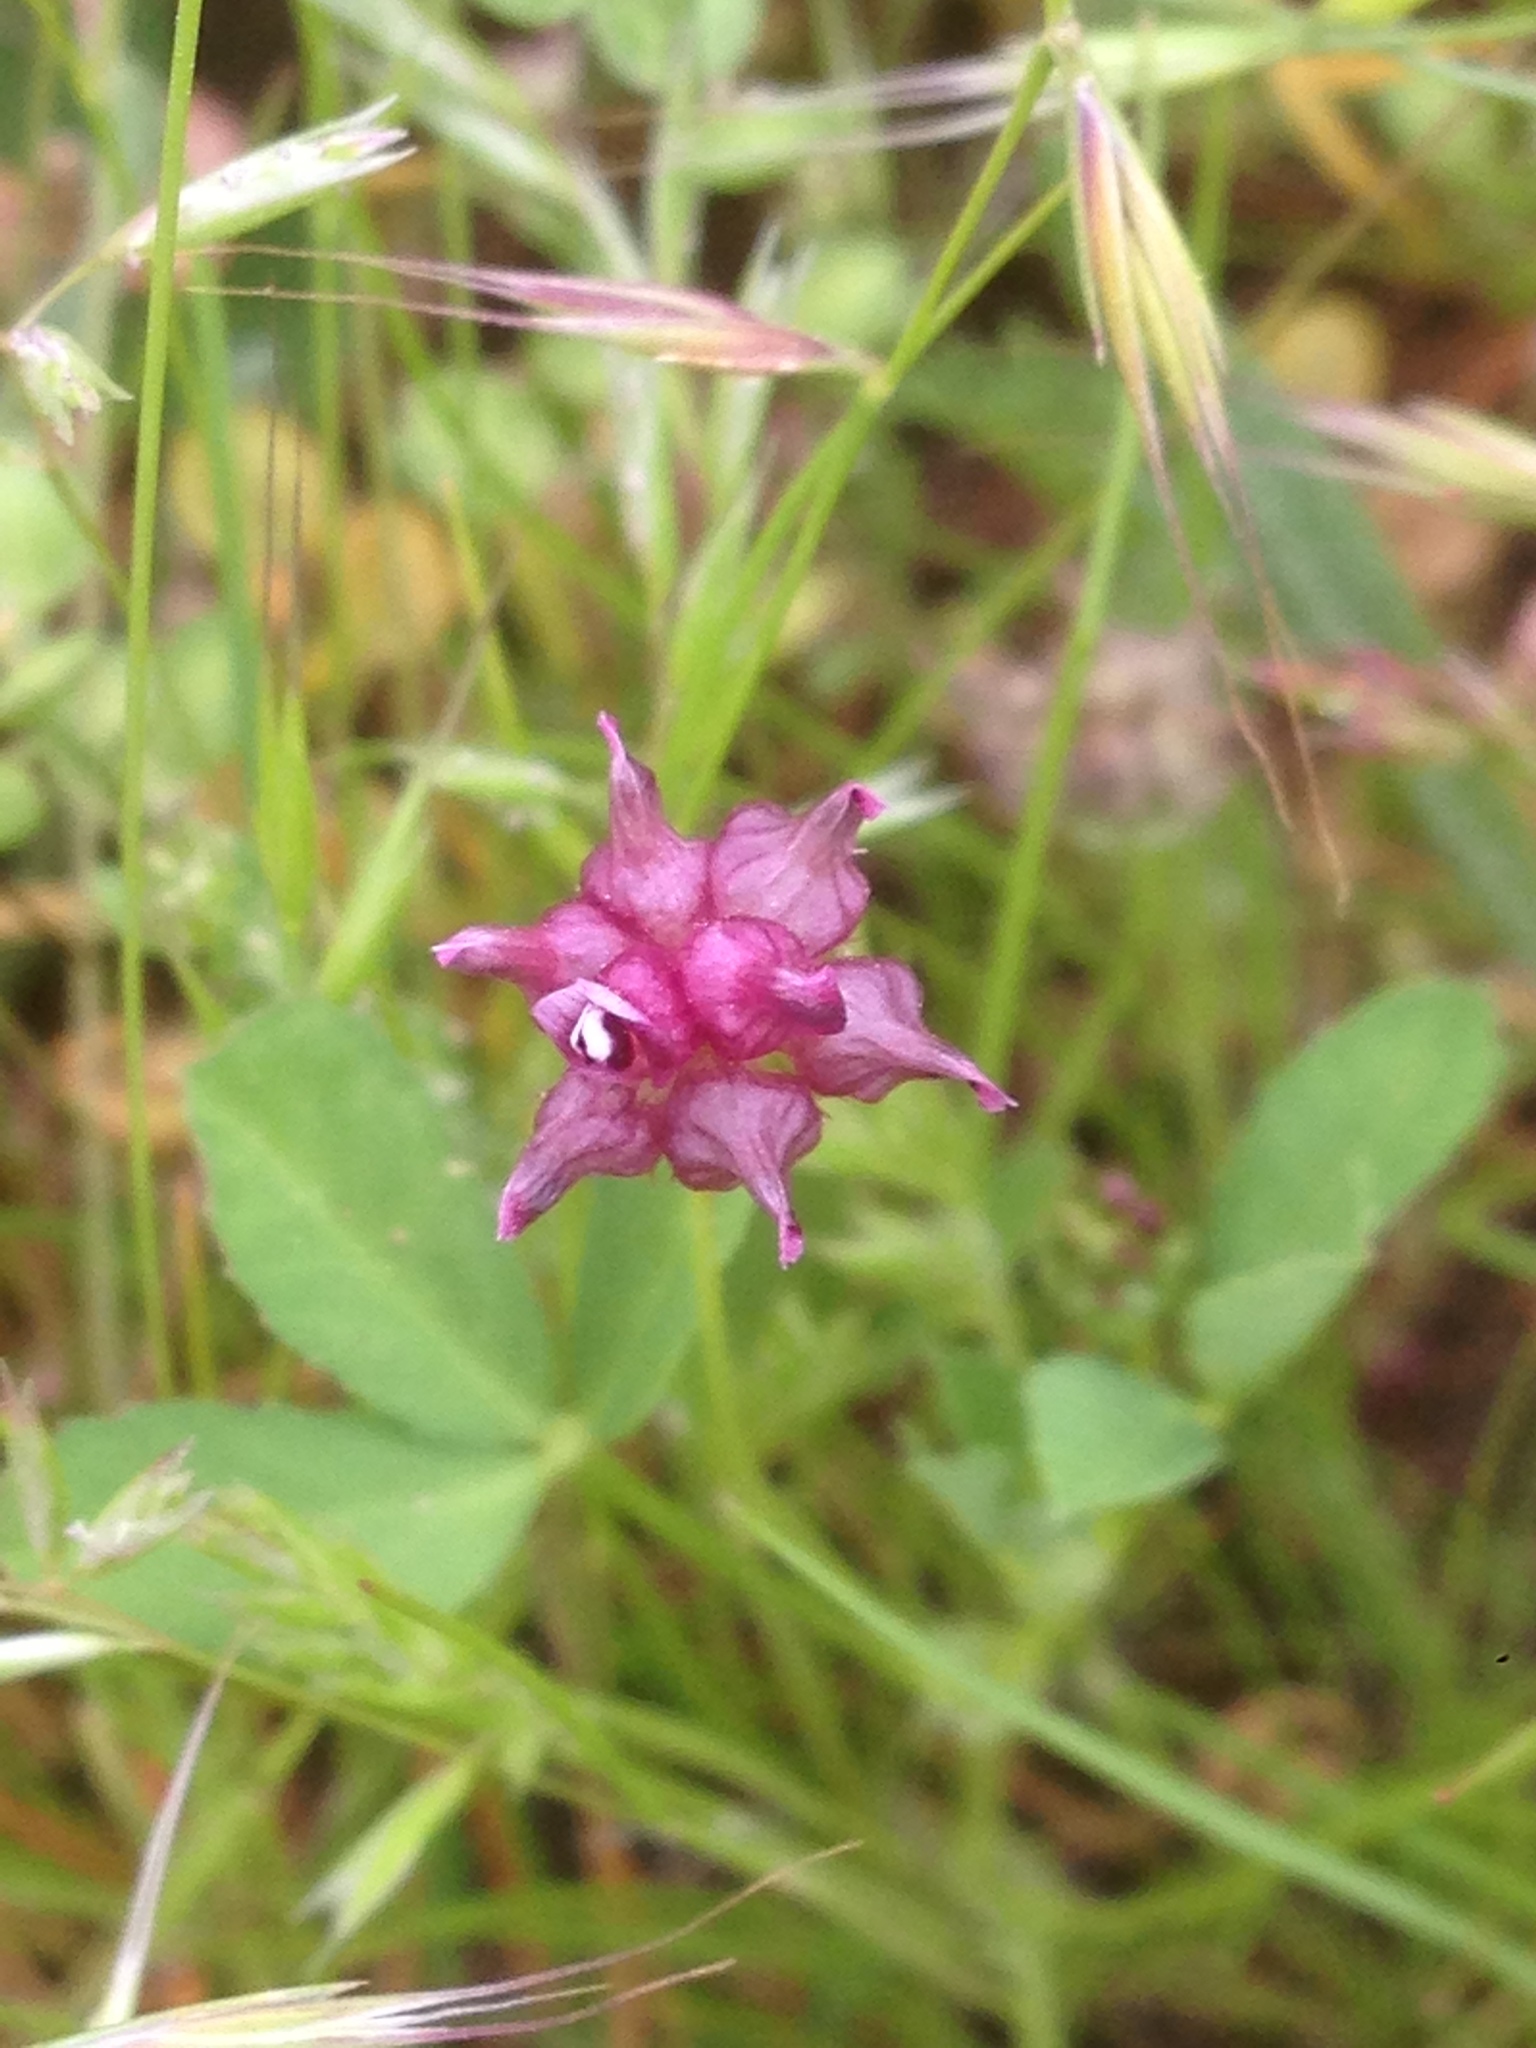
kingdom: Plantae
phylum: Tracheophyta
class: Magnoliopsida
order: Fabales
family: Fabaceae
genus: Trifolium
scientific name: Trifolium depauperatum
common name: Poverty clover
